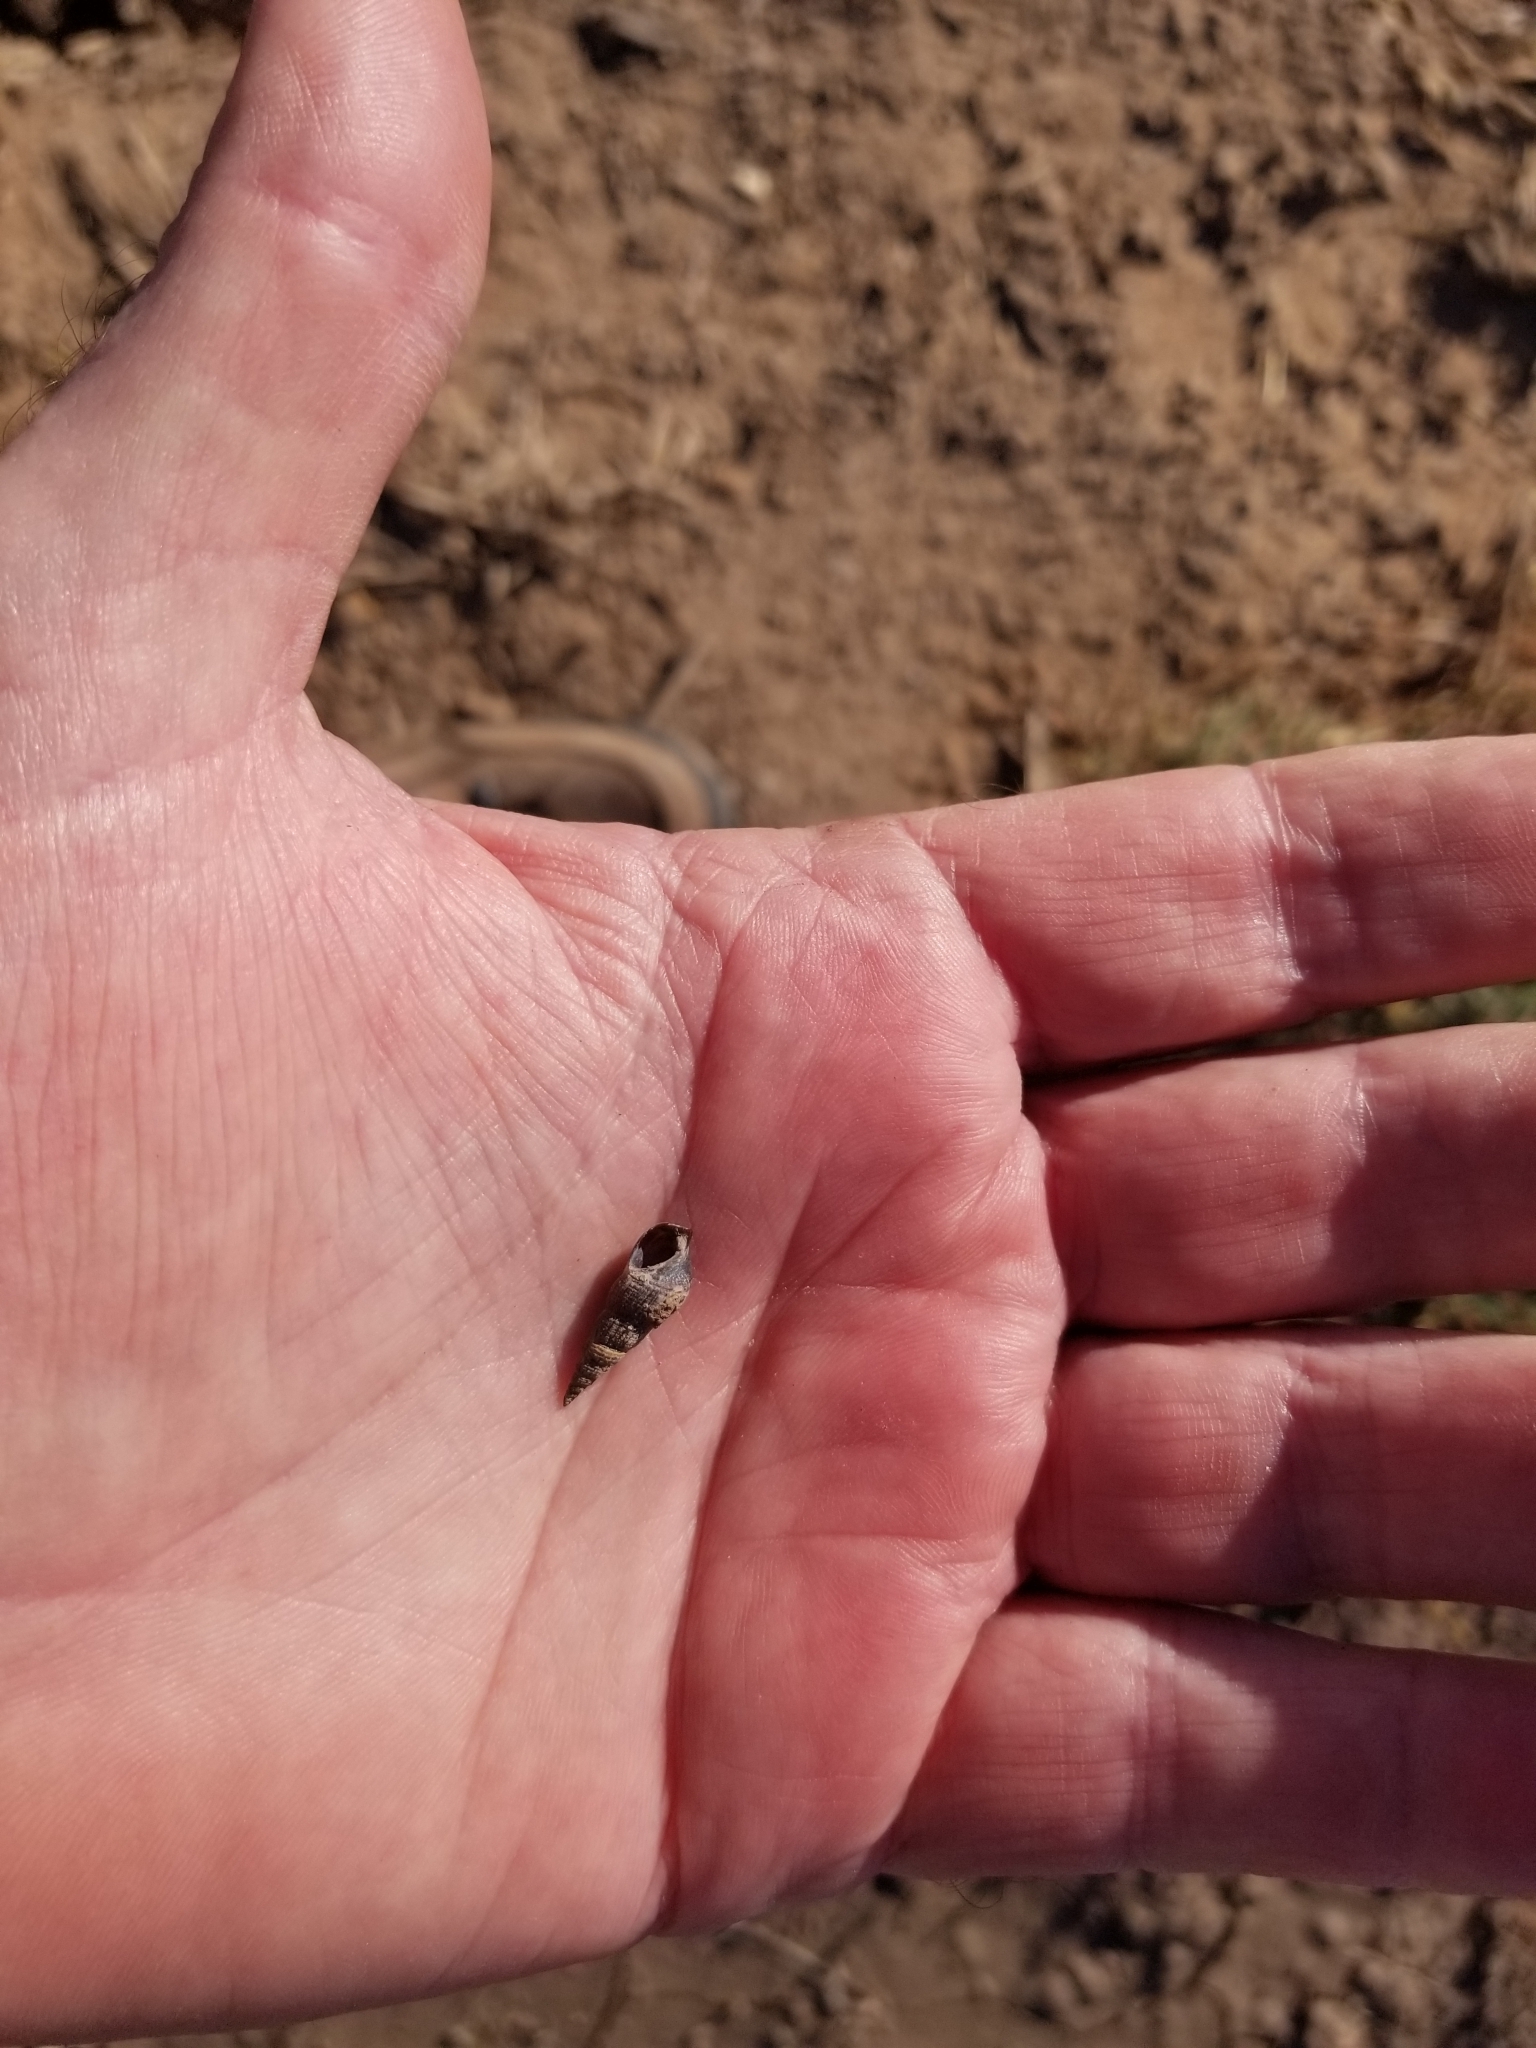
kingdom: Animalia
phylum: Mollusca
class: Gastropoda
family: Thiaridae
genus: Melanoides
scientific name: Melanoides tuberculata
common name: Red-rim melania
